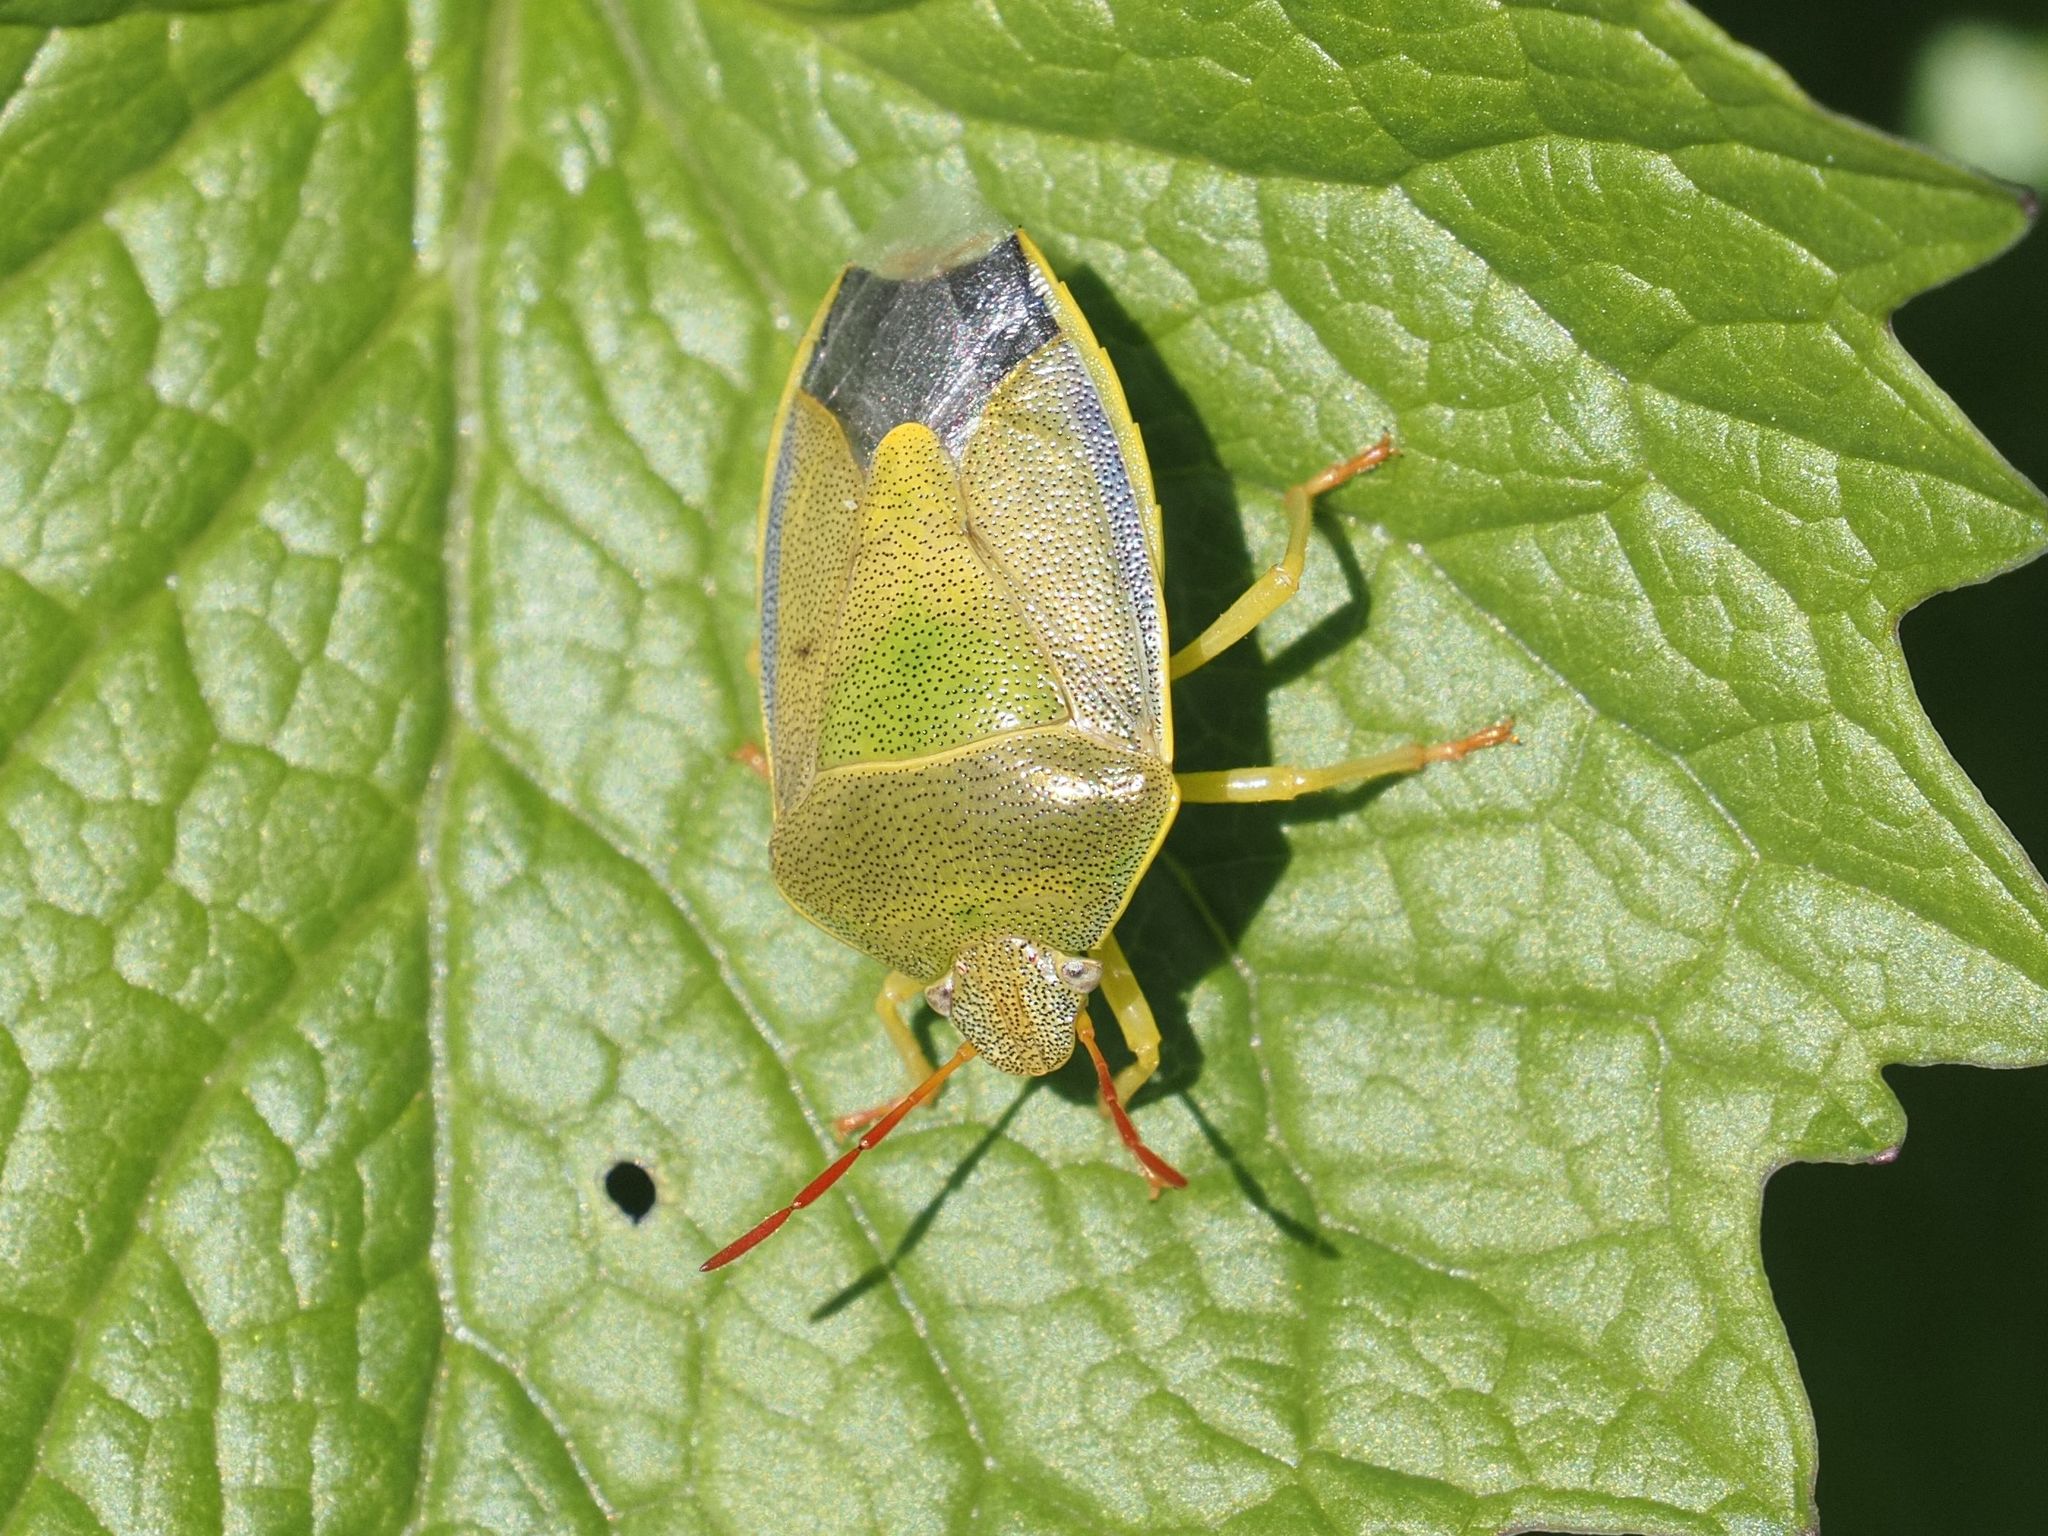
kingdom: Animalia
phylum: Arthropoda
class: Insecta
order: Hemiptera
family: Pentatomidae
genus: Piezodorus
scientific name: Piezodorus lituratus
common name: Stink bug
